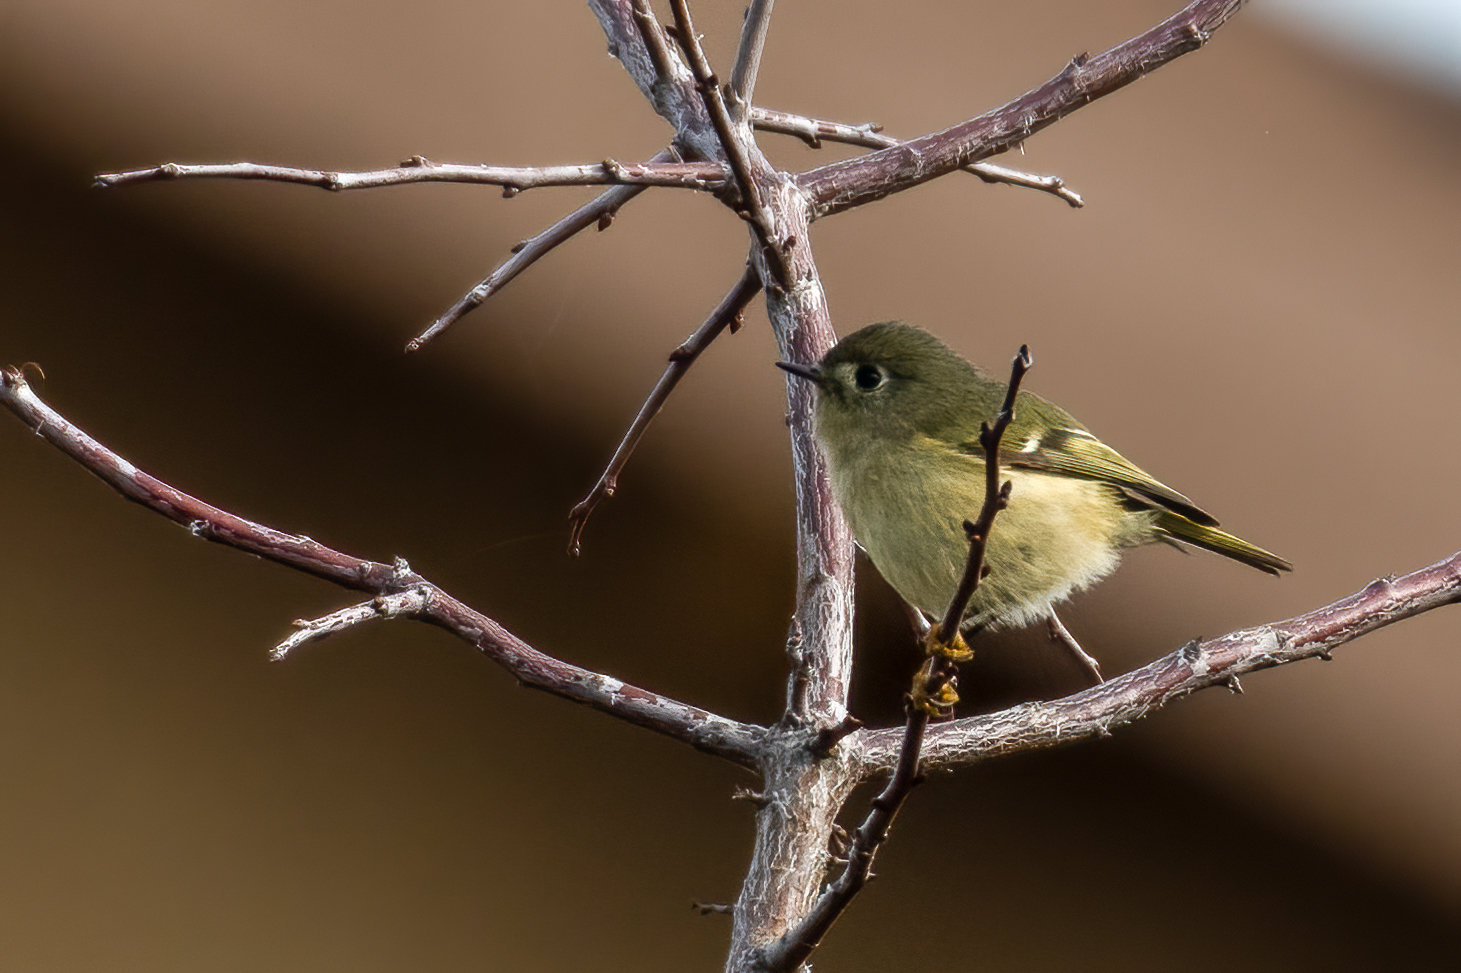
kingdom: Animalia
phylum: Chordata
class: Aves
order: Passeriformes
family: Regulidae
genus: Regulus
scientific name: Regulus calendula
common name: Ruby-crowned kinglet
